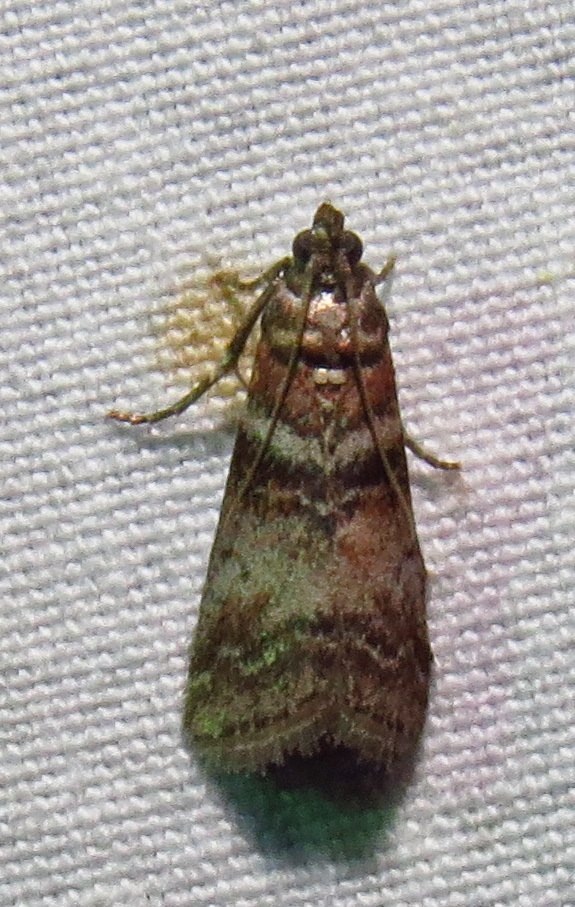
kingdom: Animalia
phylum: Arthropoda
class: Insecta
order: Lepidoptera
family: Pyralidae
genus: Sciota
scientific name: Sciota uvinella
